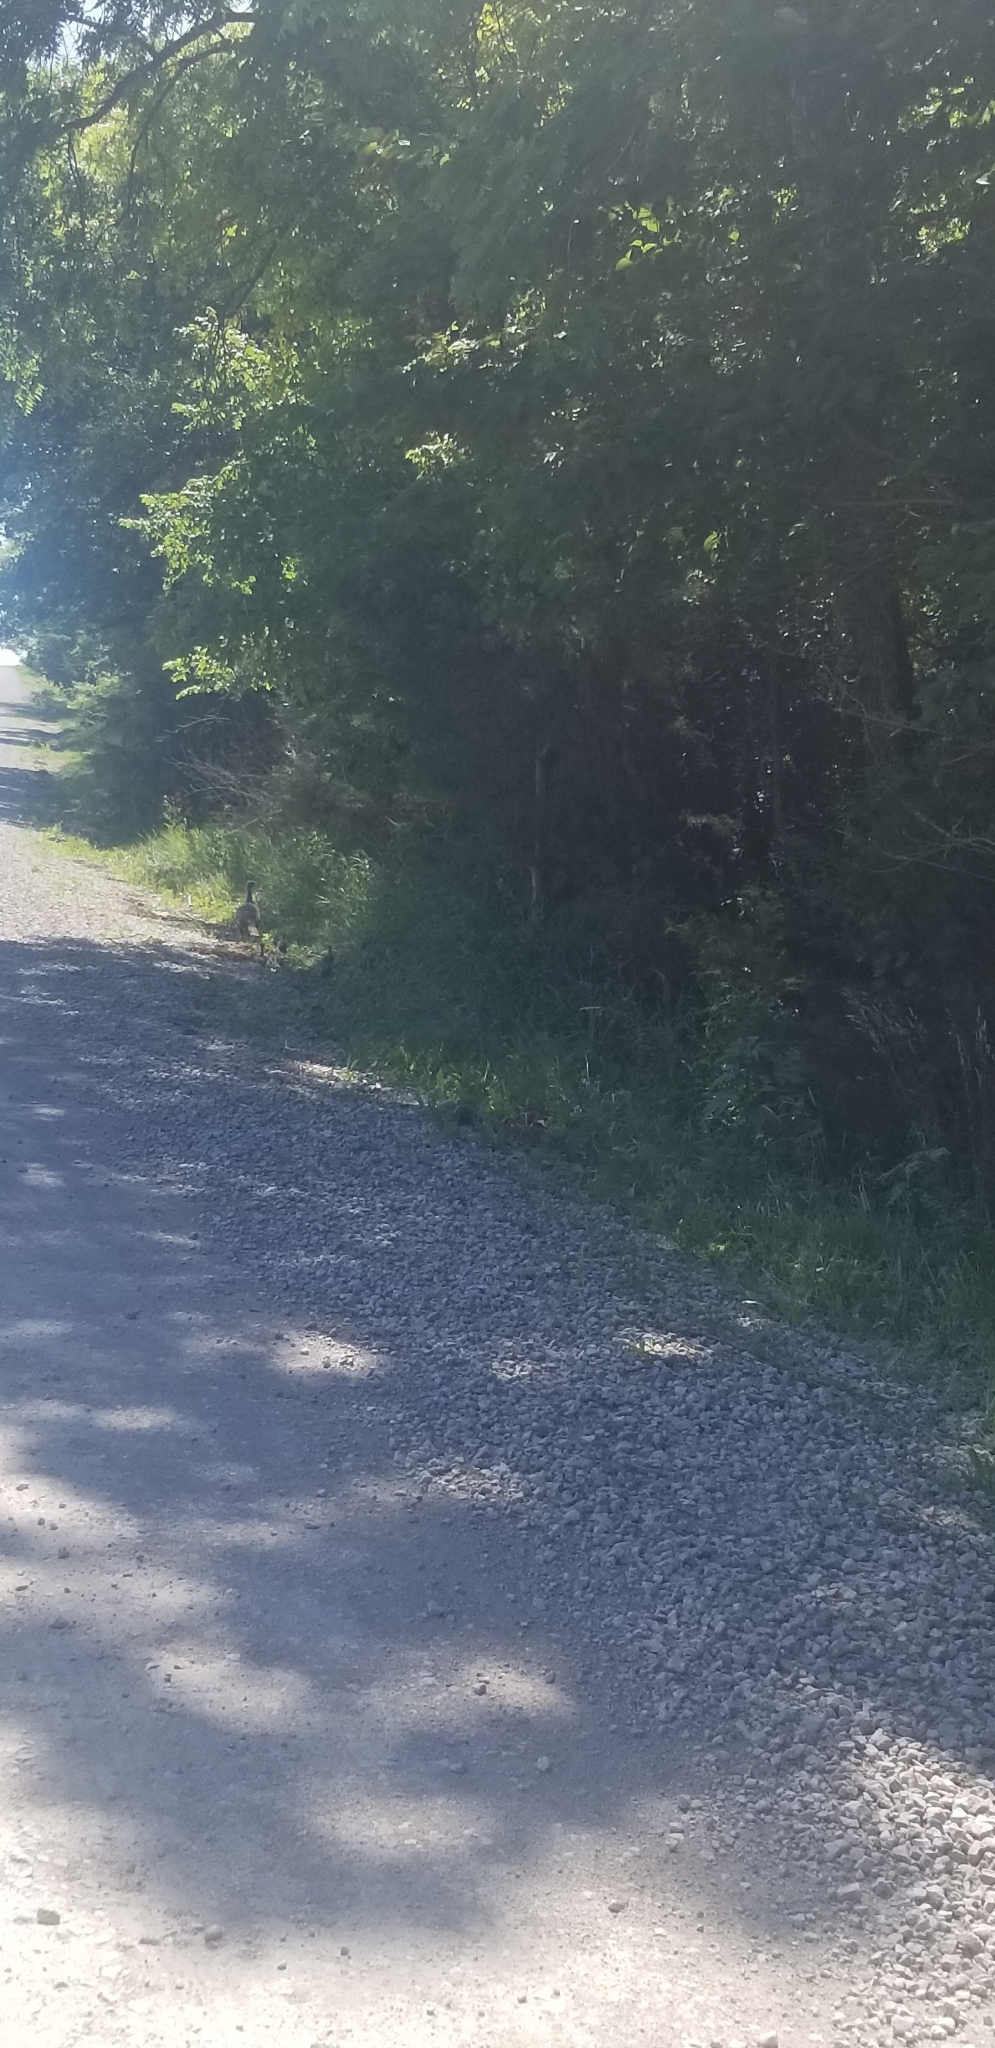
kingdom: Animalia
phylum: Chordata
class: Aves
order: Galliformes
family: Phasianidae
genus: Meleagris
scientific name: Meleagris gallopavo
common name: Wild turkey
